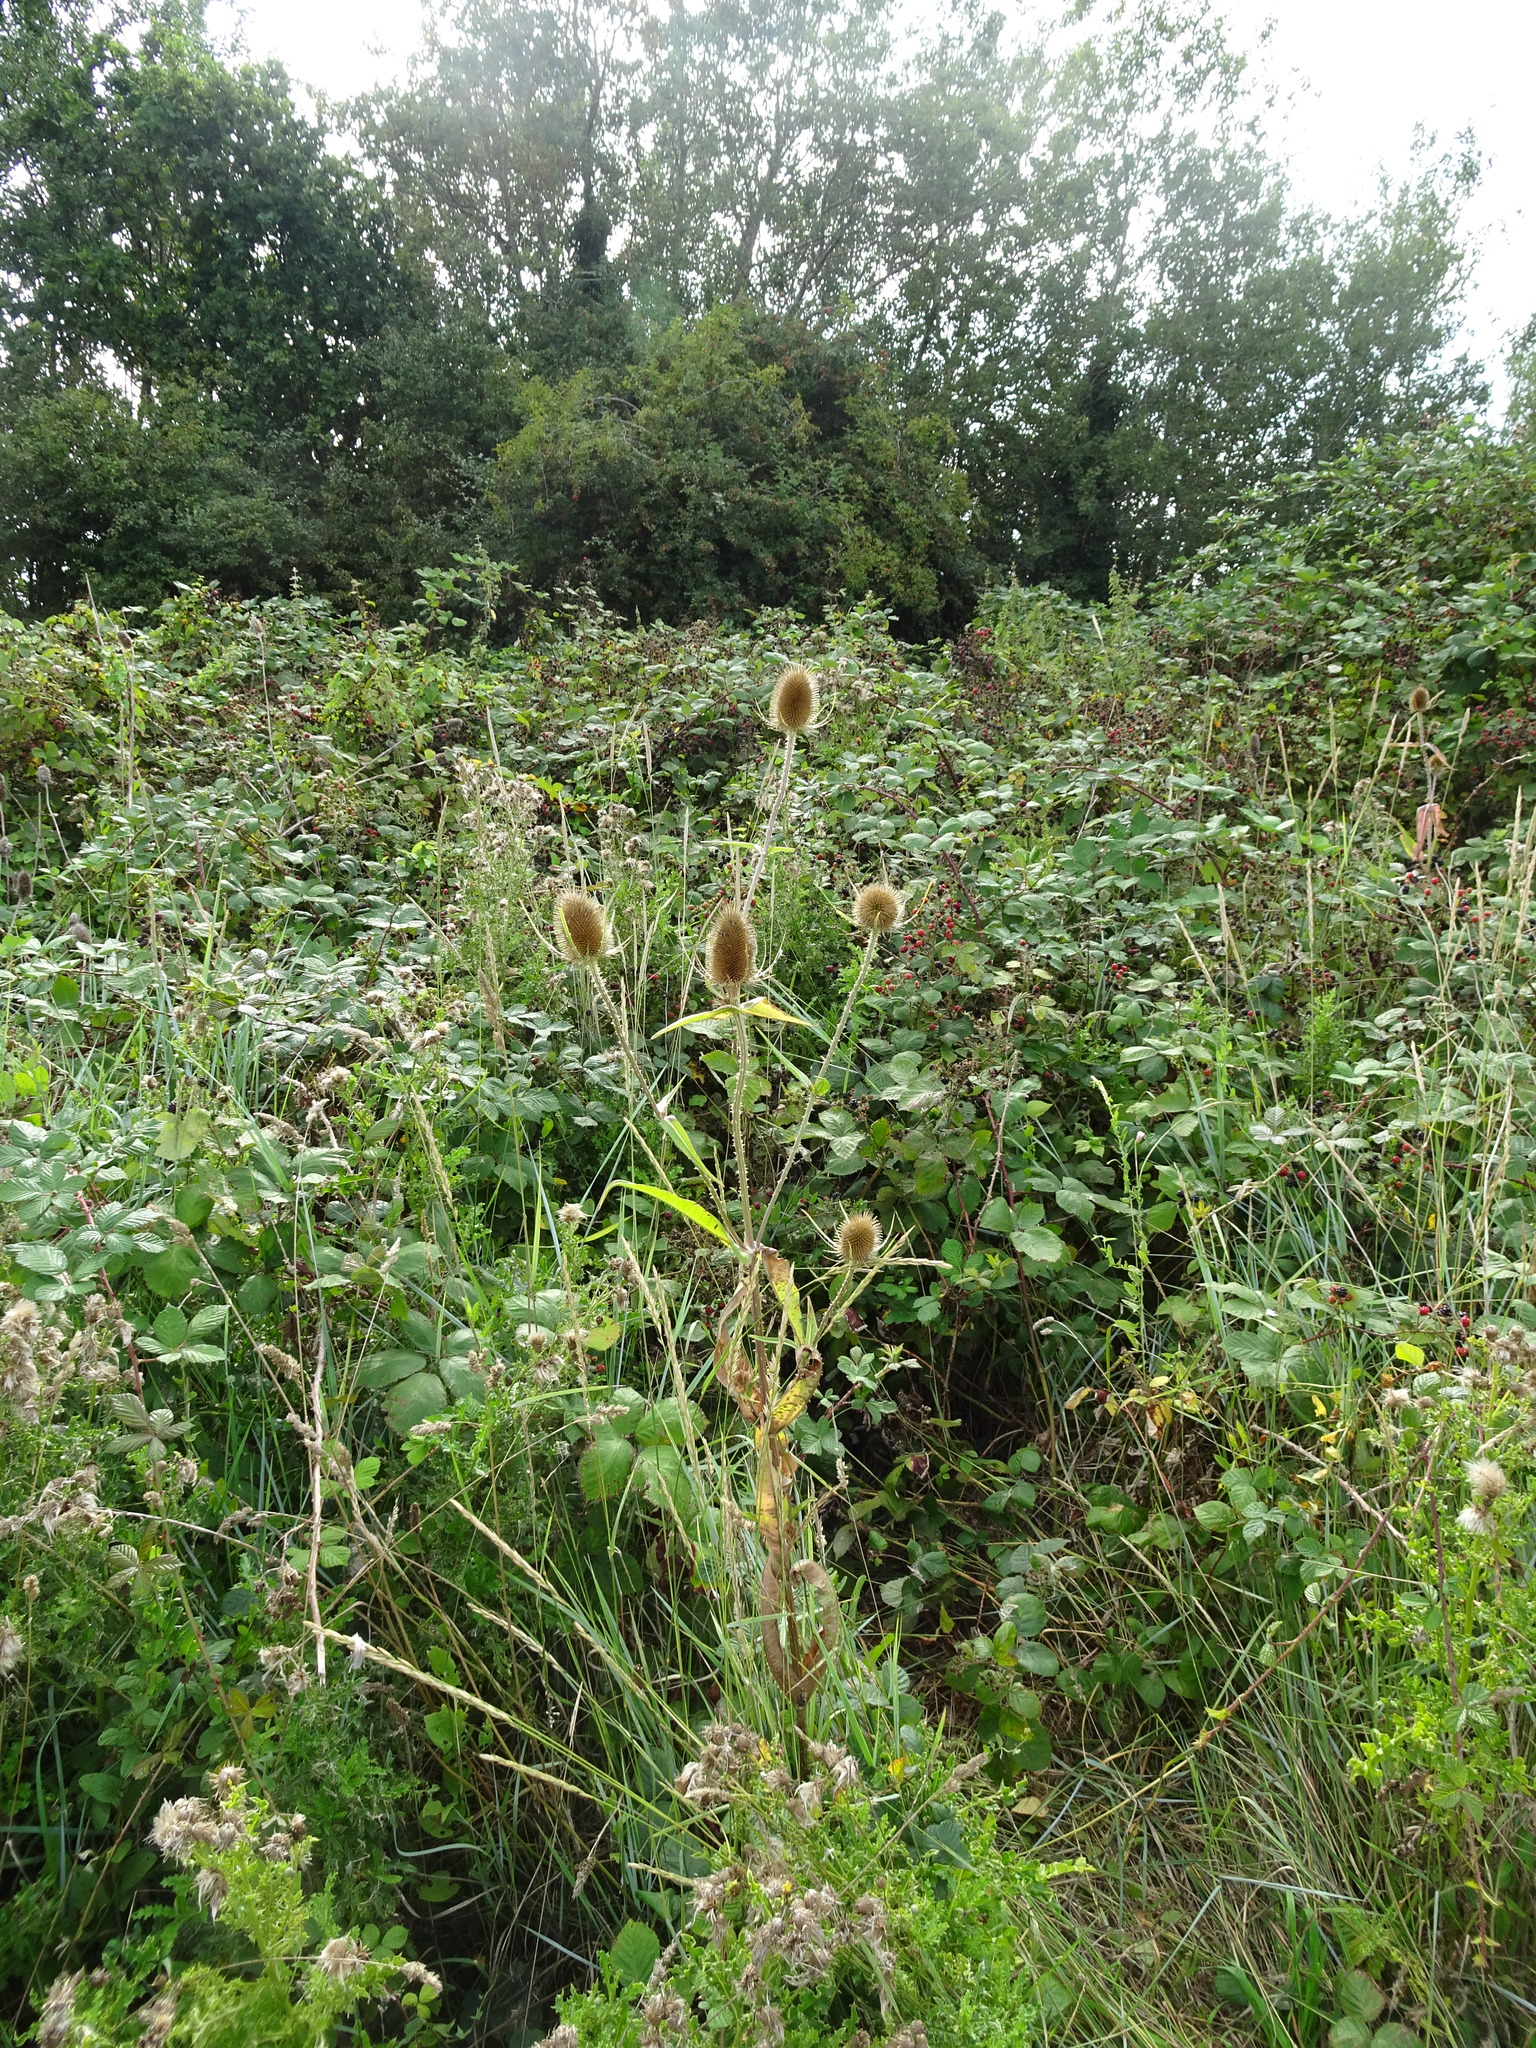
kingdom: Plantae
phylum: Tracheophyta
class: Magnoliopsida
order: Dipsacales
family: Caprifoliaceae
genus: Dipsacus
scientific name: Dipsacus fullonum
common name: Teasel
